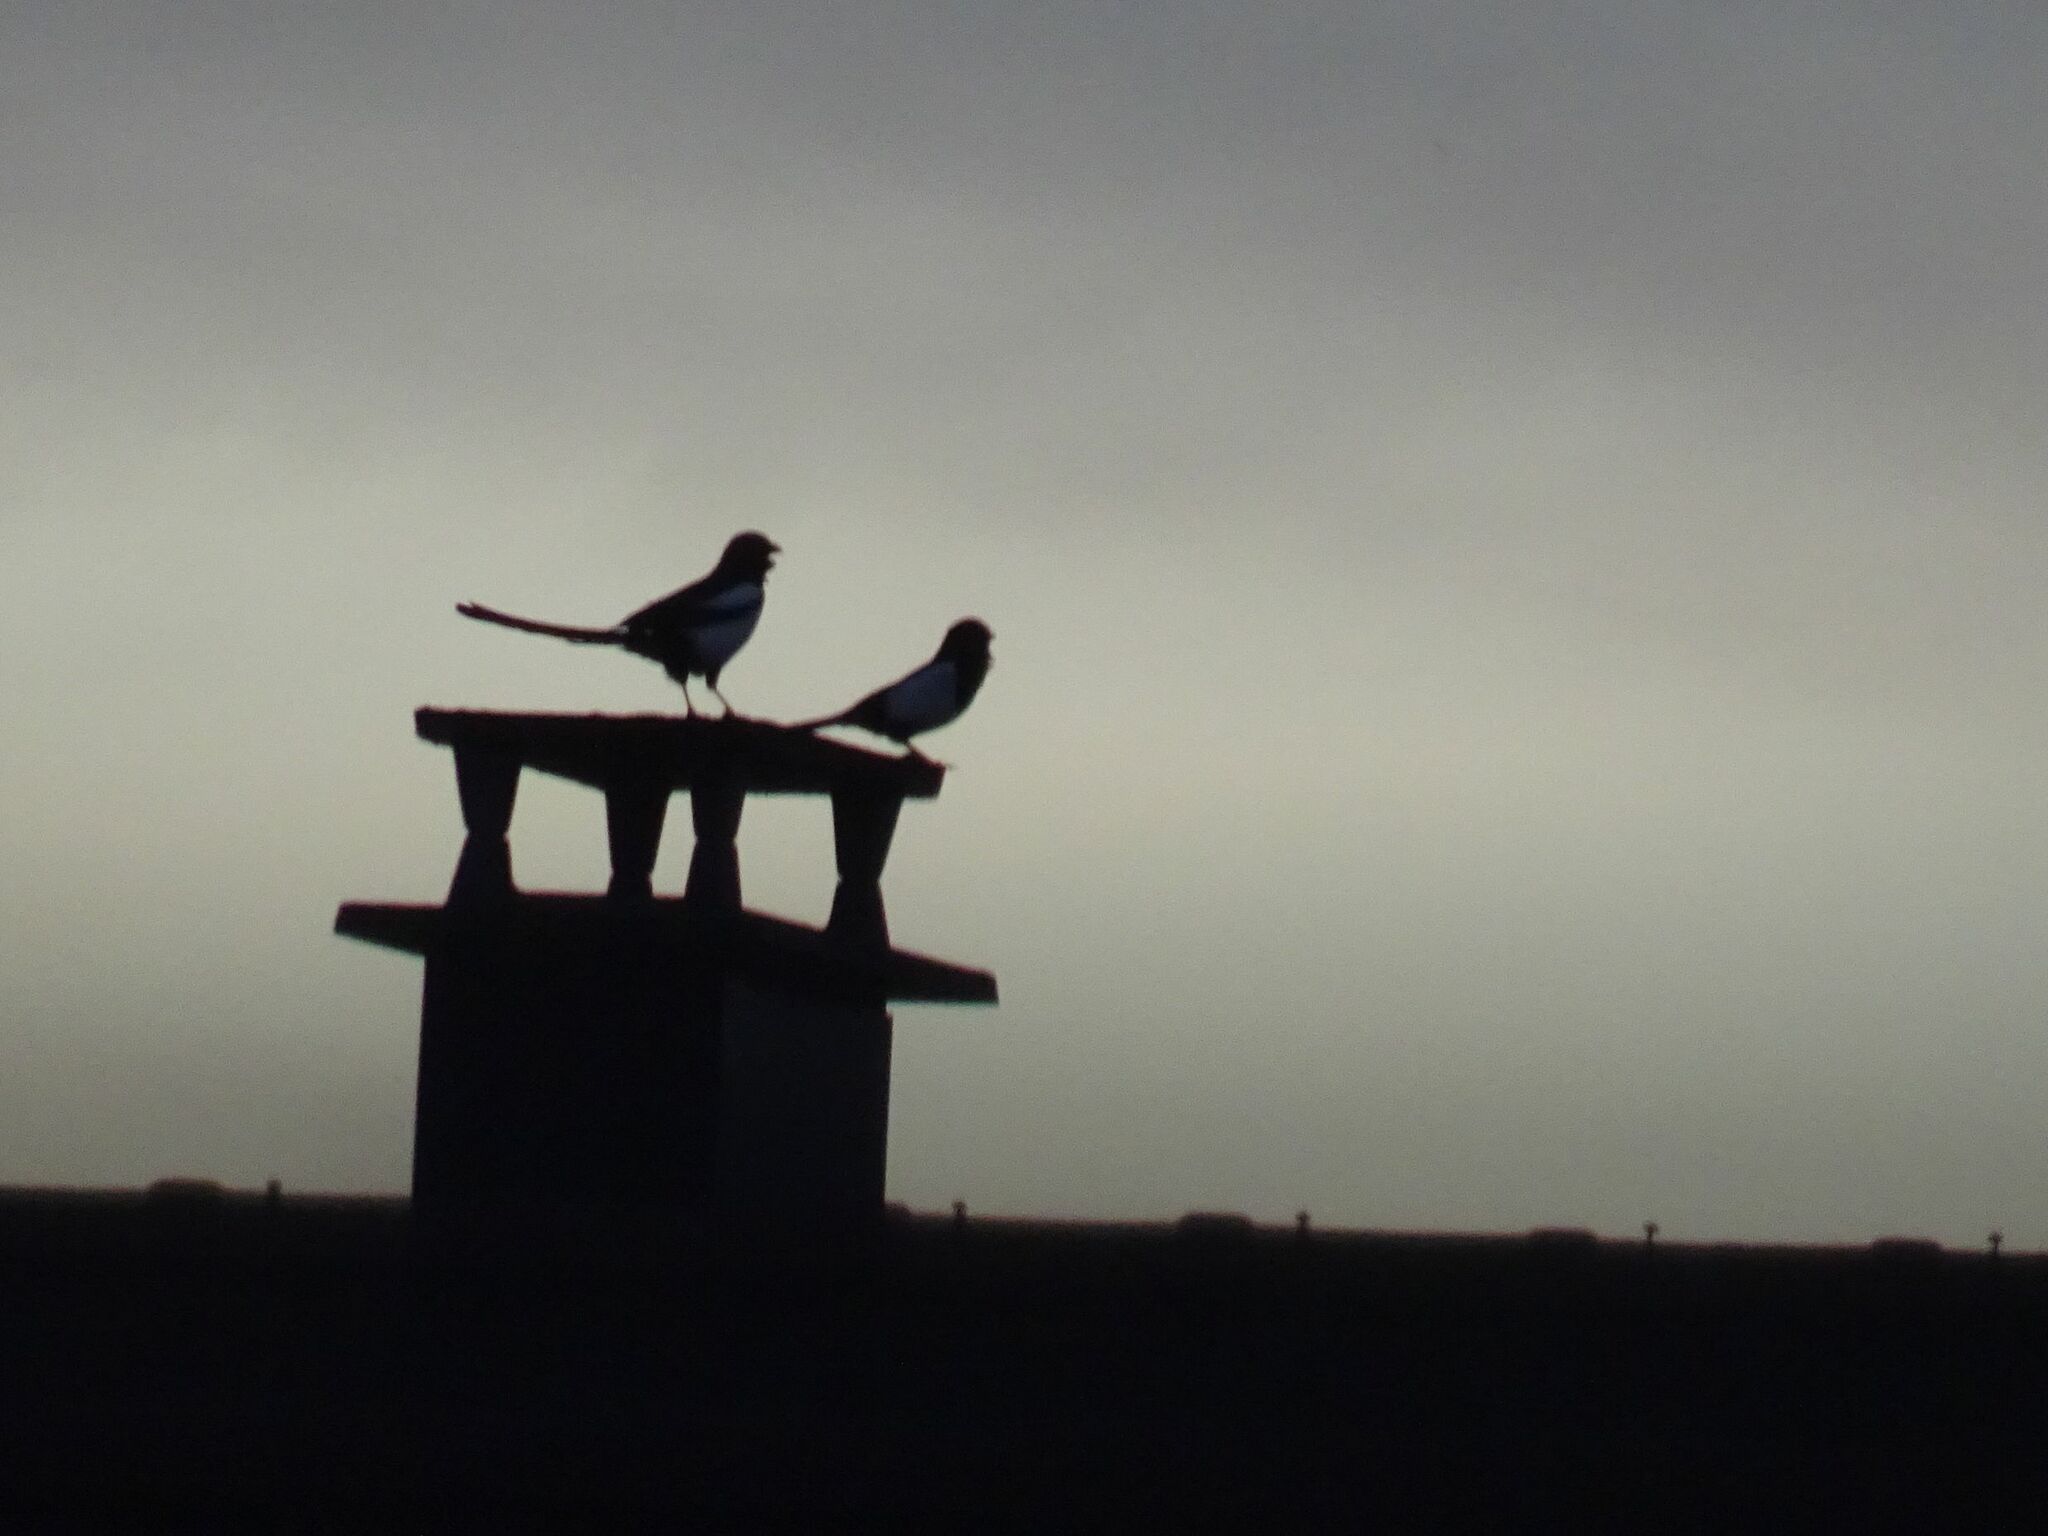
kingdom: Animalia
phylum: Chordata
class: Aves
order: Passeriformes
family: Corvidae
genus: Pica
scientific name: Pica pica
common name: Eurasian magpie
